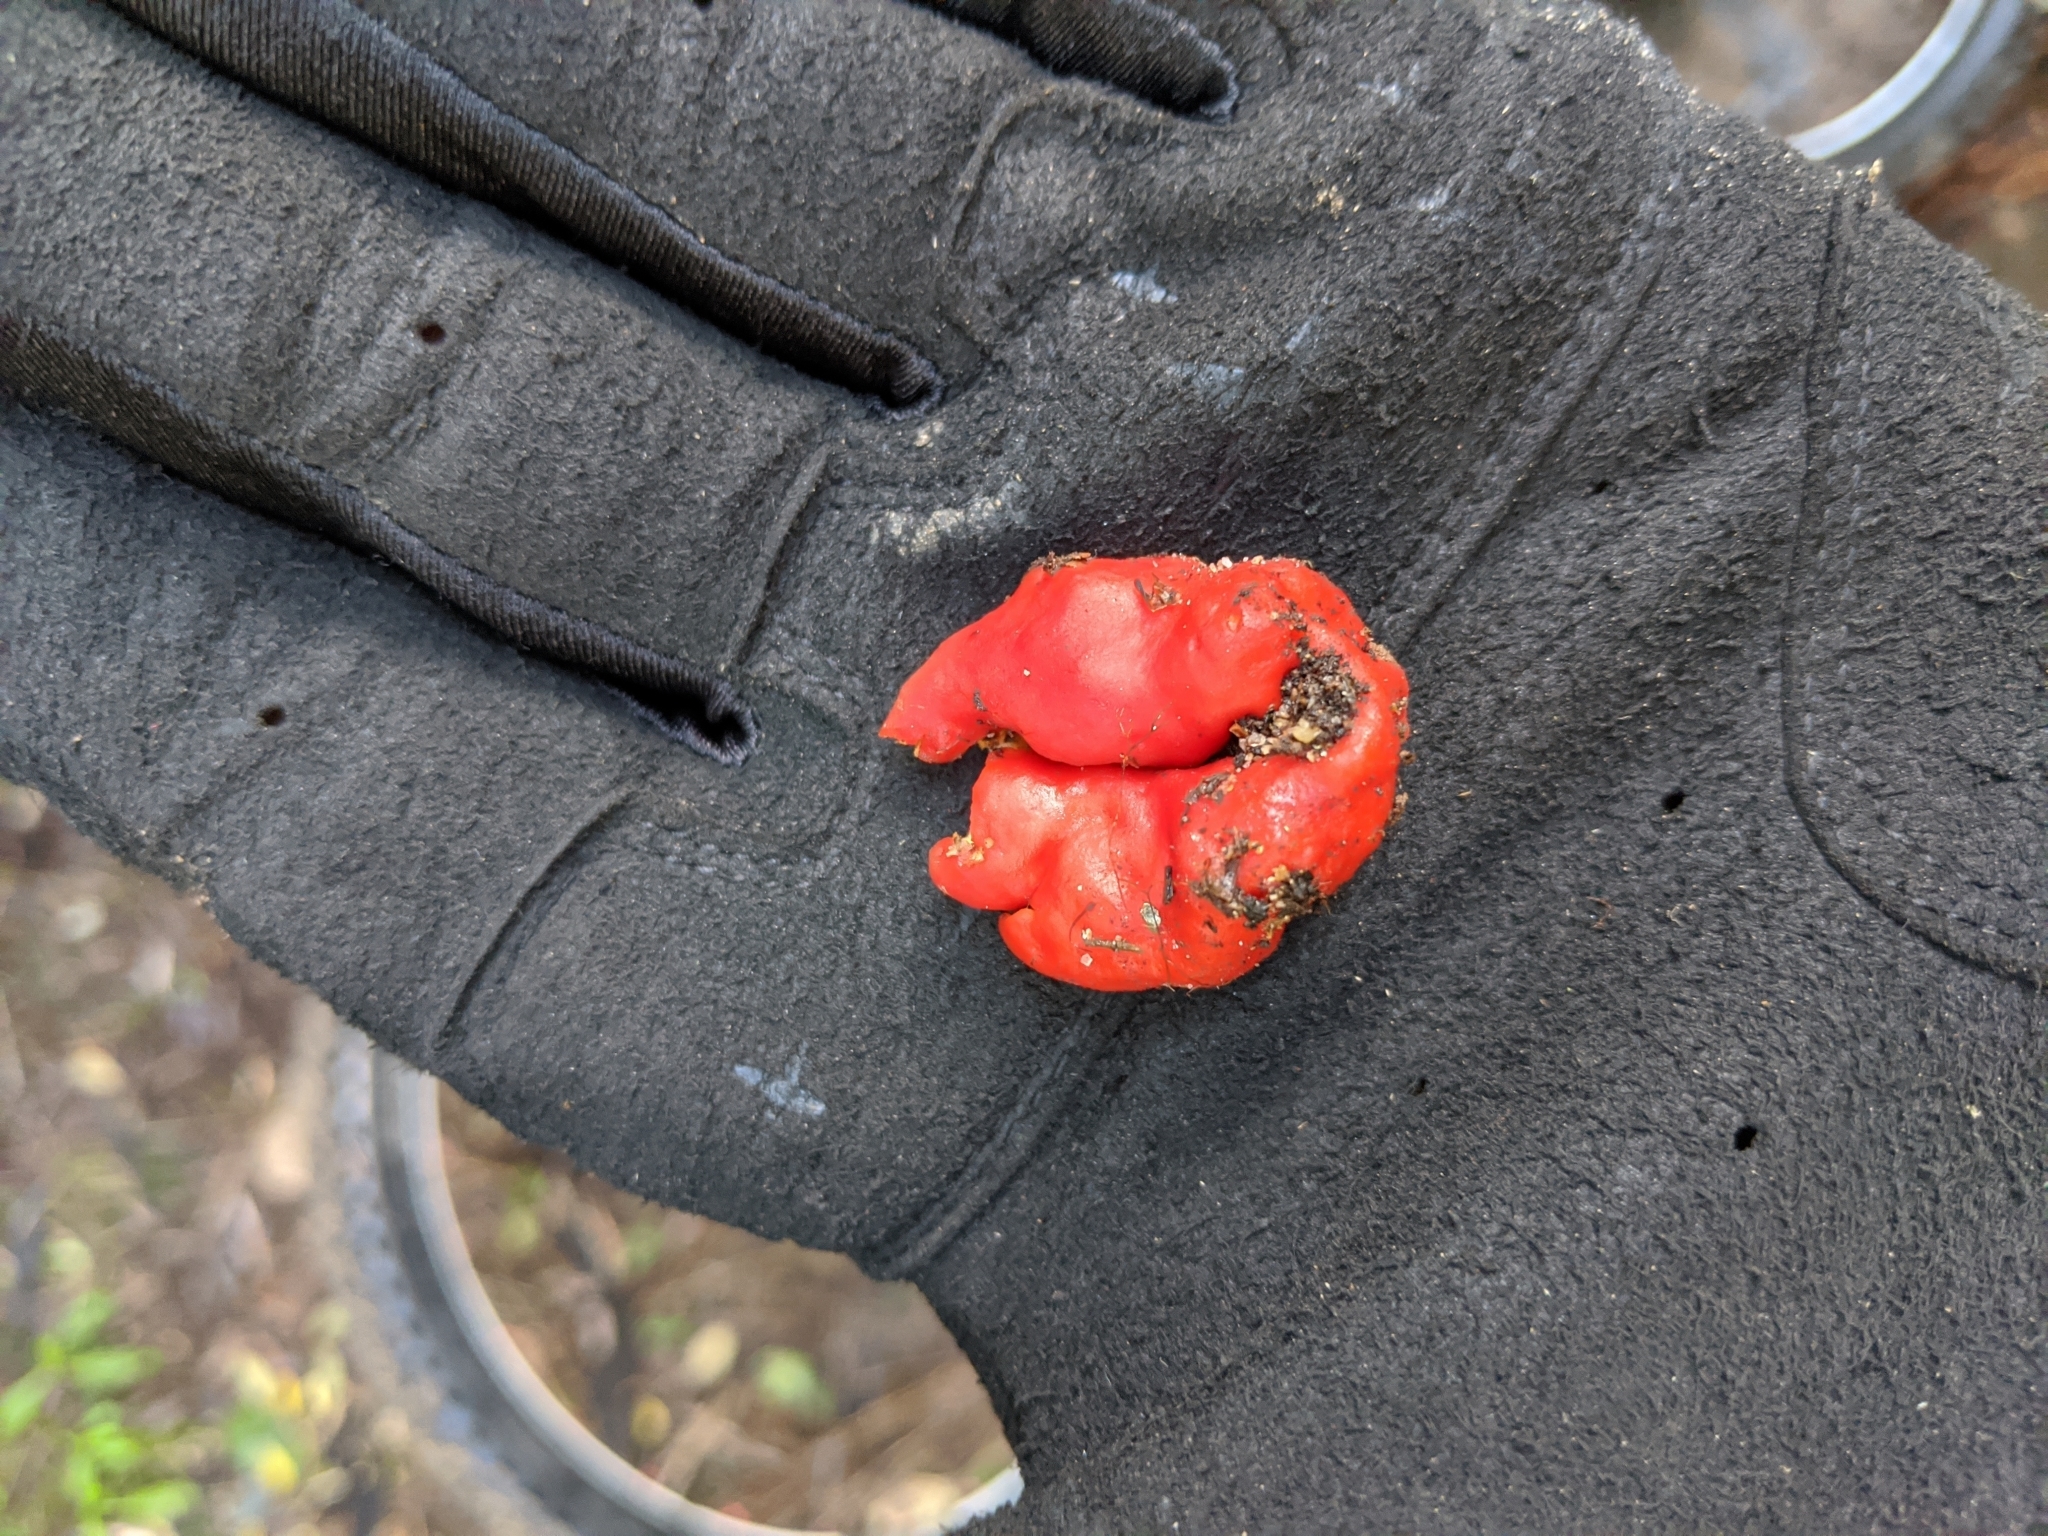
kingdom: Fungi
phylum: Ascomycota
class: Pezizomycetes
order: Pezizales
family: Pyronemataceae
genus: Paurocotylis
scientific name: Paurocotylis pila
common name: Scarlet berry truffle
